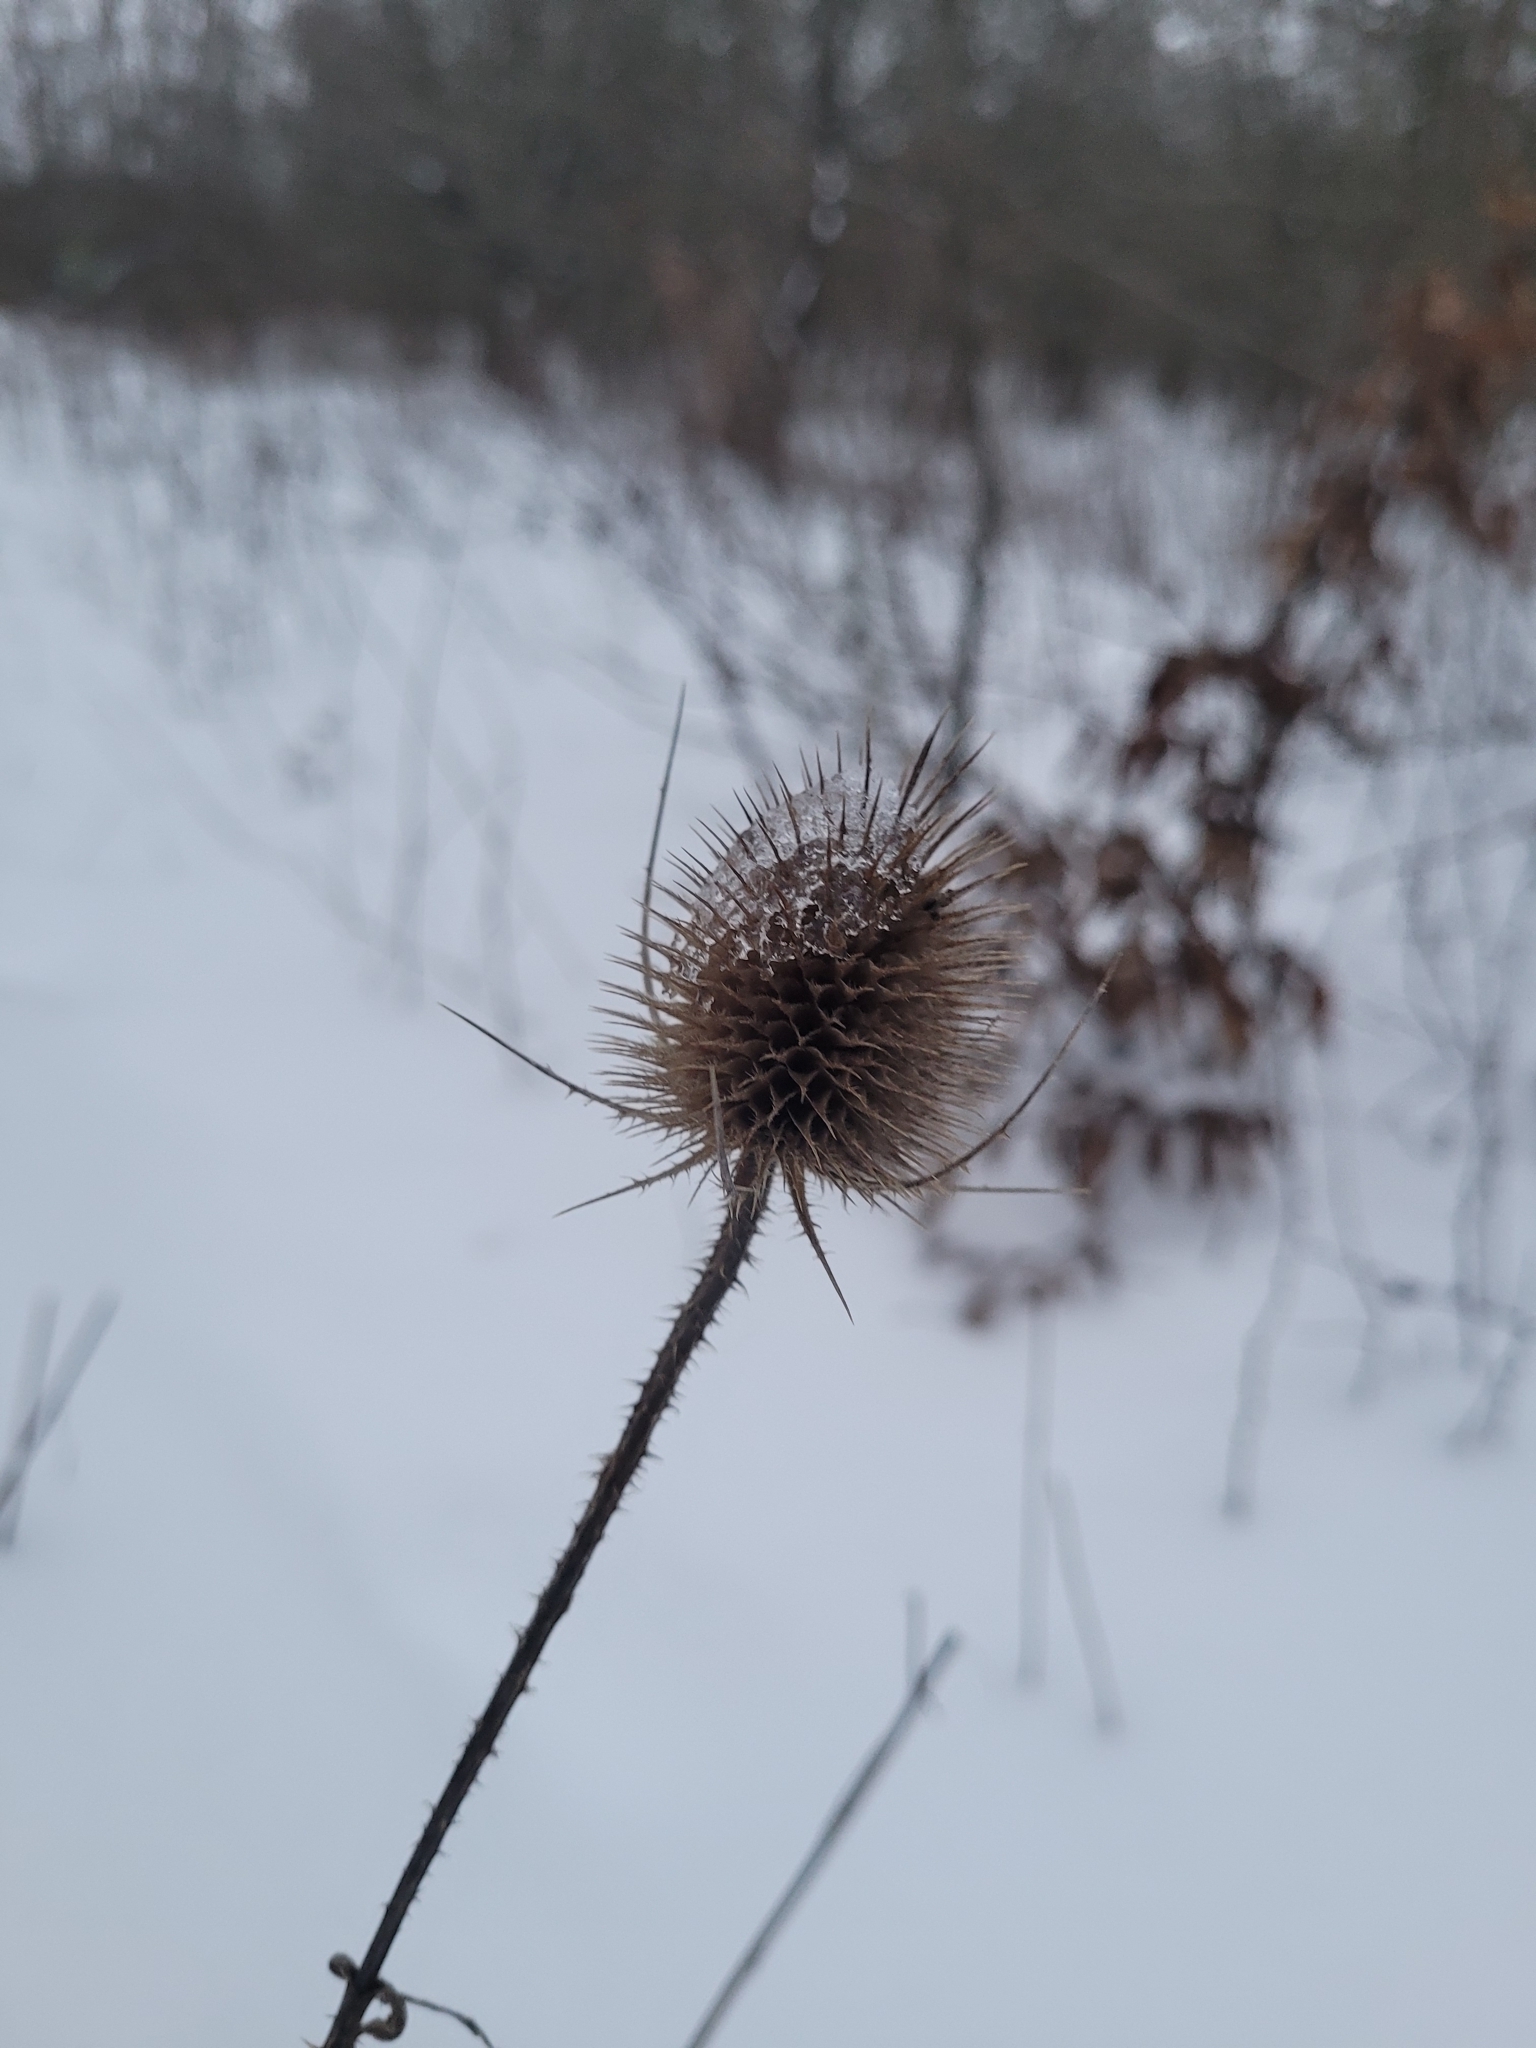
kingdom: Plantae
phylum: Tracheophyta
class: Magnoliopsida
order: Dipsacales
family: Caprifoliaceae
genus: Dipsacus
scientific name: Dipsacus fullonum
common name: Teasel
